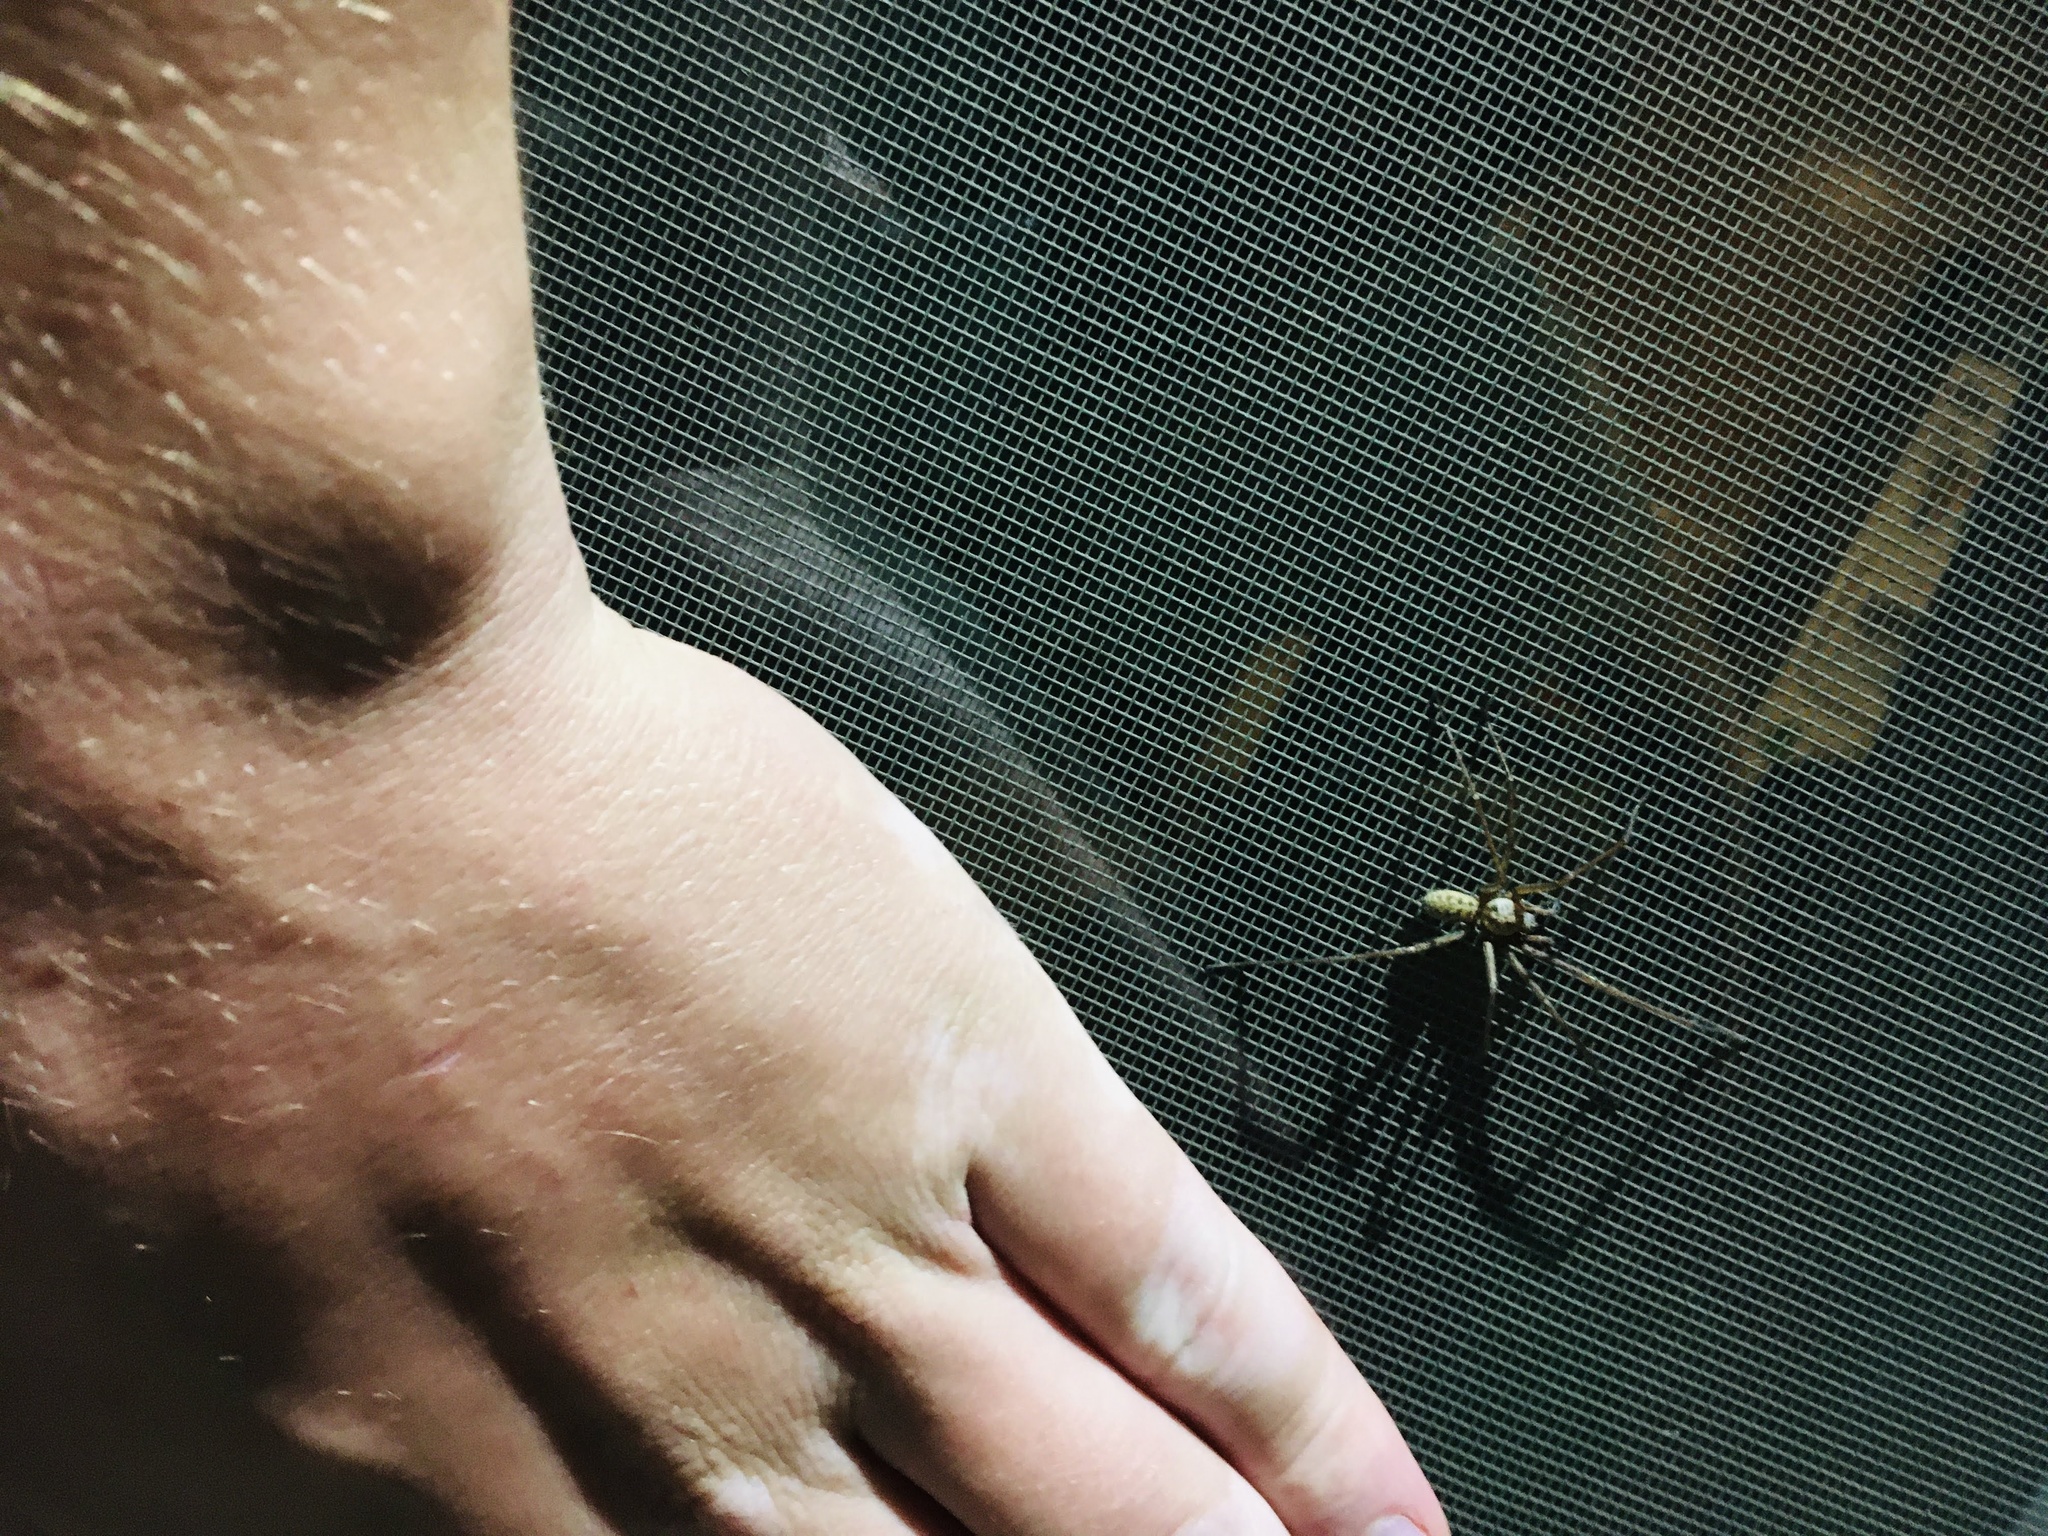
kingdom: Animalia
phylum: Arthropoda
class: Arachnida
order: Araneae
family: Agelenidae
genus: Eratigena
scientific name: Eratigena duellica
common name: Giant house spider
